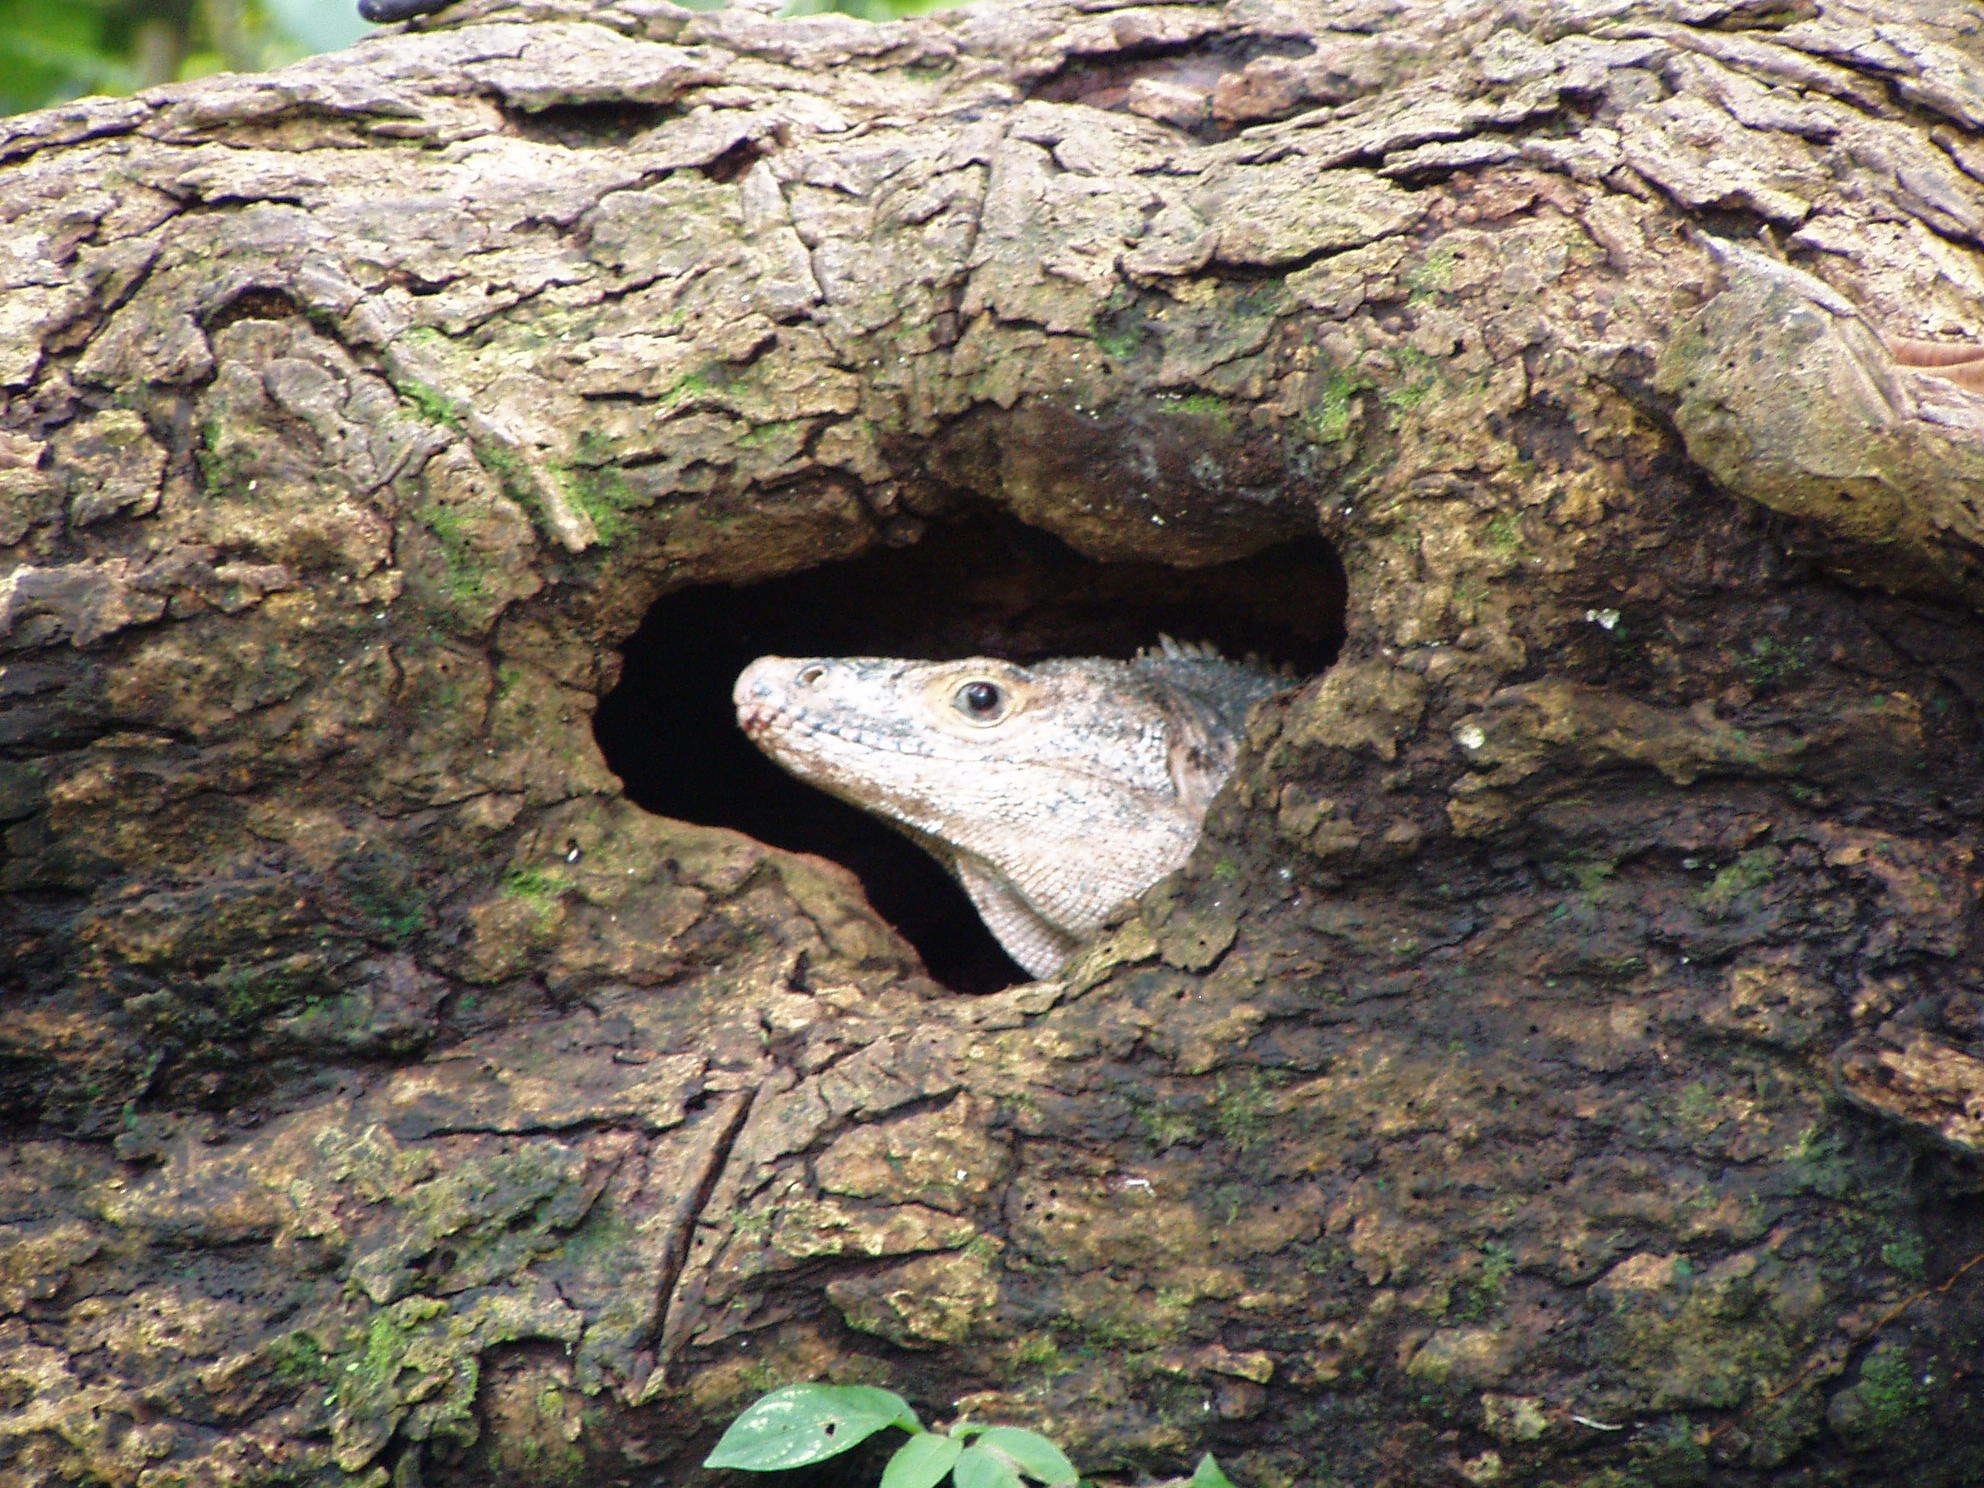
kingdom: Animalia
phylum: Chordata
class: Squamata
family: Iguanidae
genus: Ctenosaura
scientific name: Ctenosaura similis
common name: Black spiny-tailed iguana
